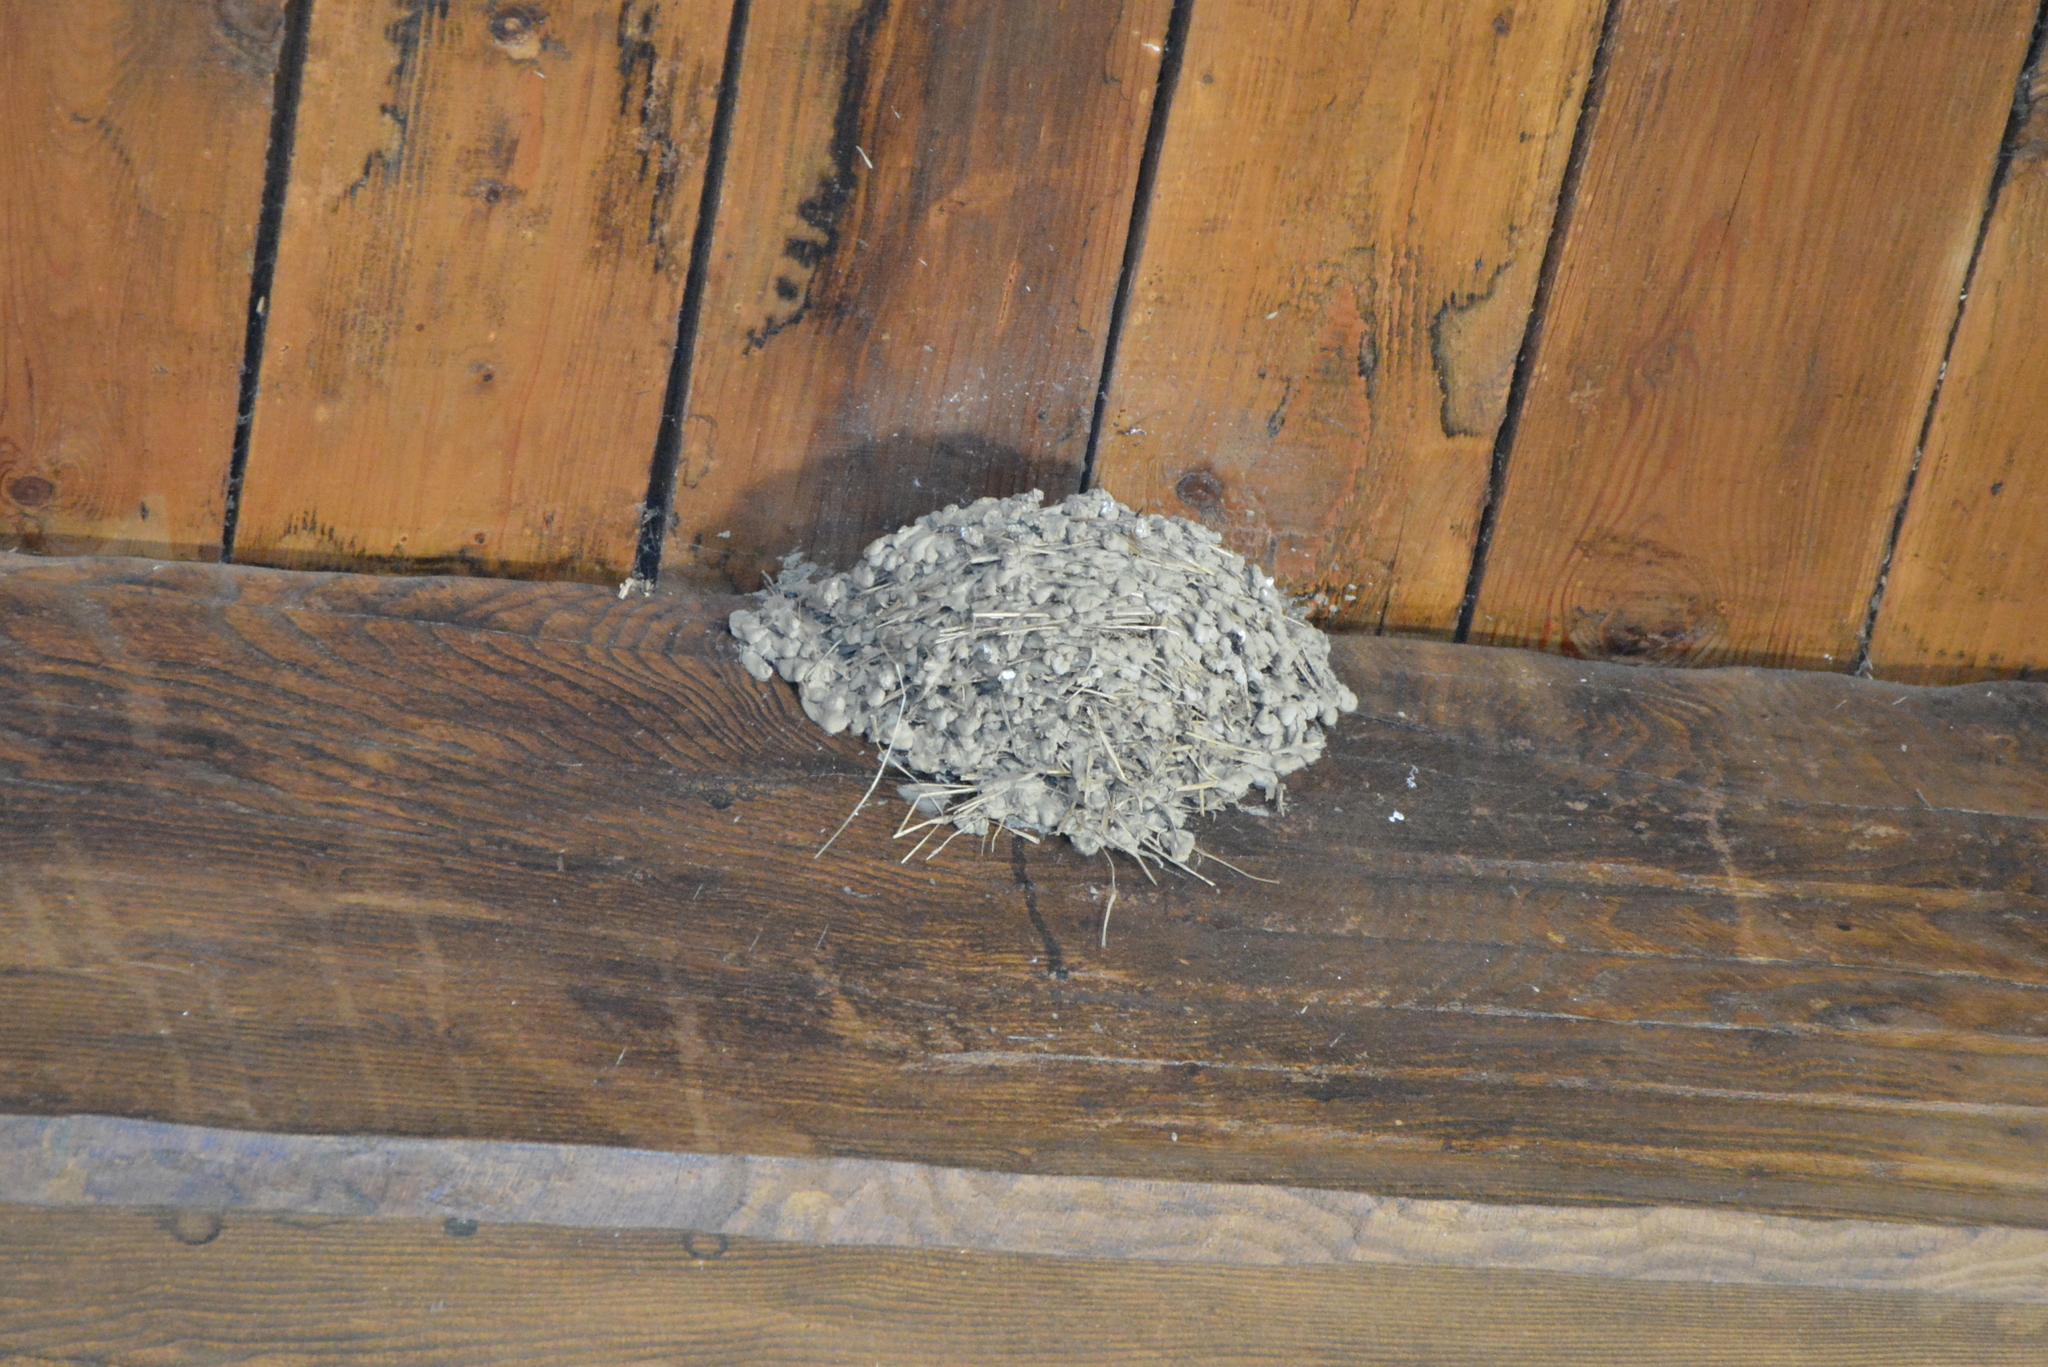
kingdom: Animalia
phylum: Chordata
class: Aves
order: Passeriformes
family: Hirundinidae
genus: Hirundo
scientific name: Hirundo rustica
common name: Barn swallow
